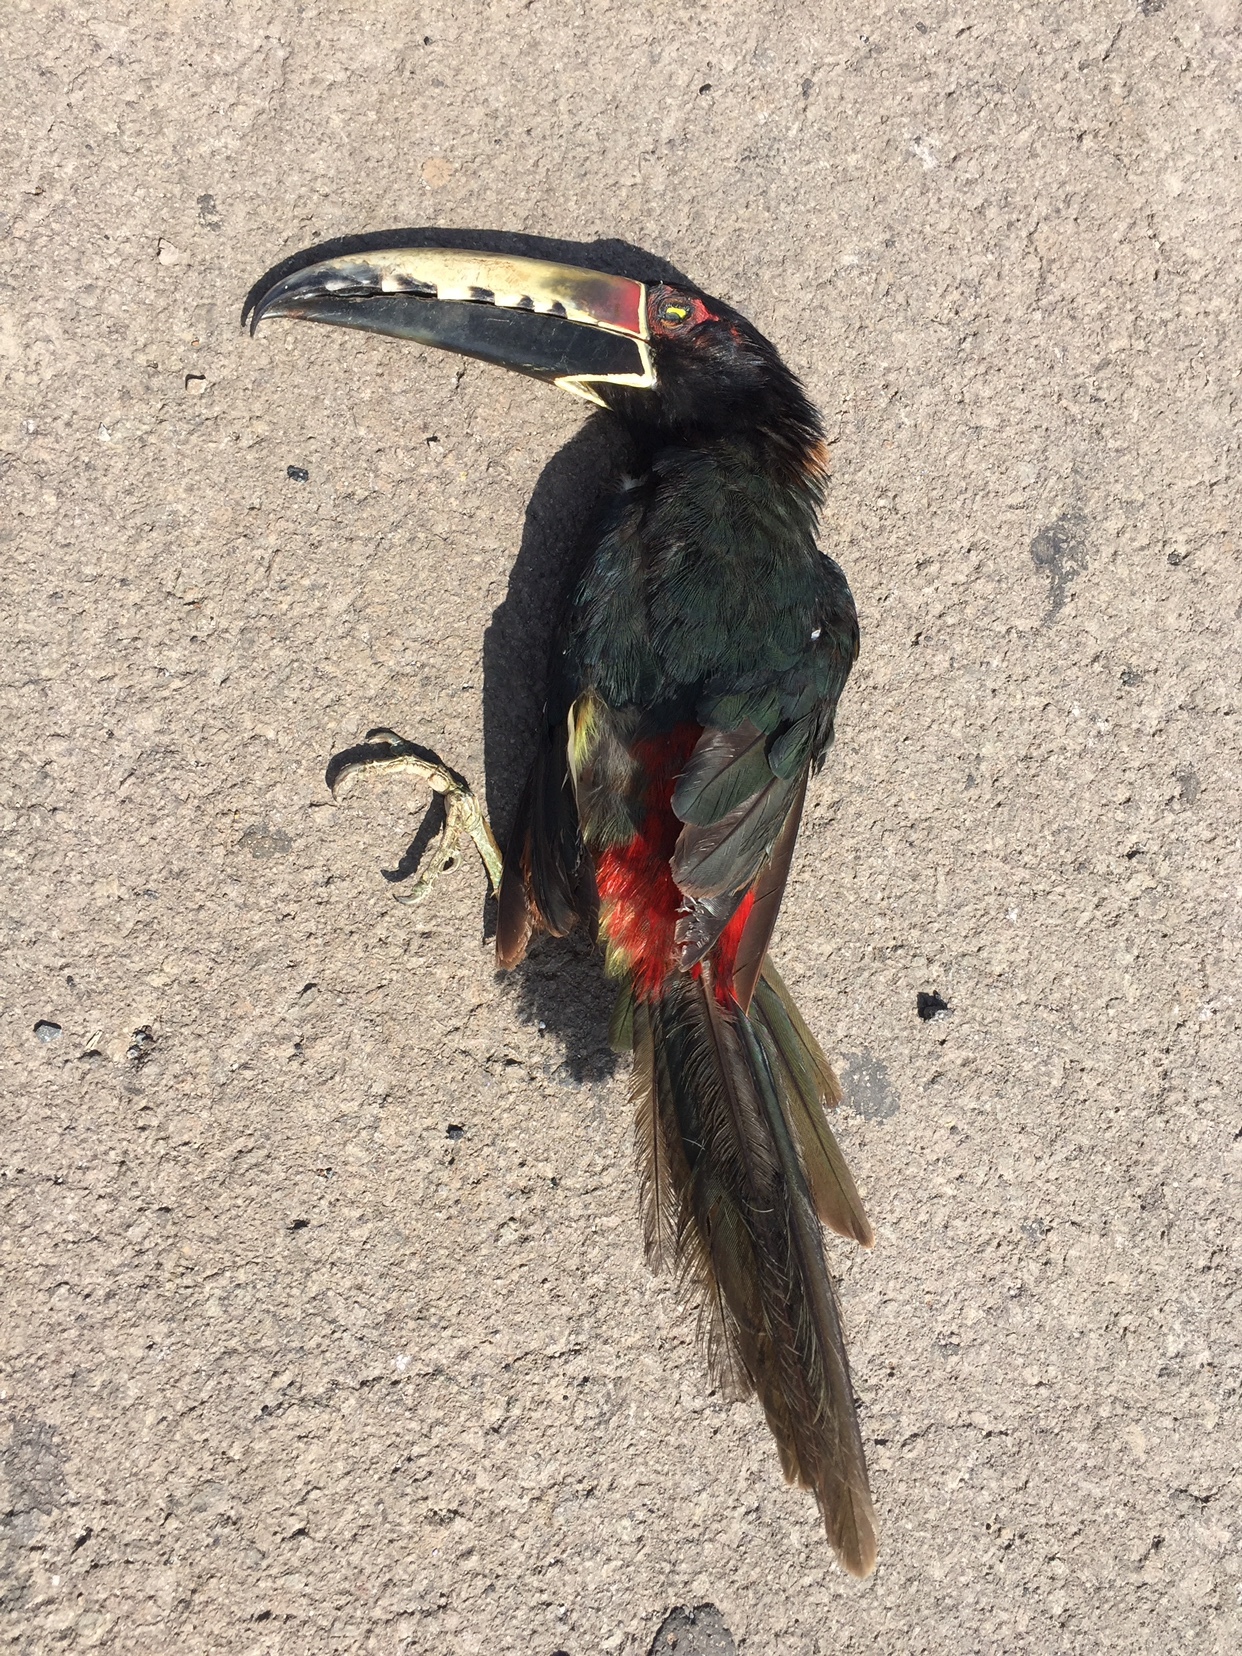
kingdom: Animalia
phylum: Chordata
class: Aves
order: Piciformes
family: Ramphastidae
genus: Pteroglossus
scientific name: Pteroglossus torquatus
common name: Collared aracari
